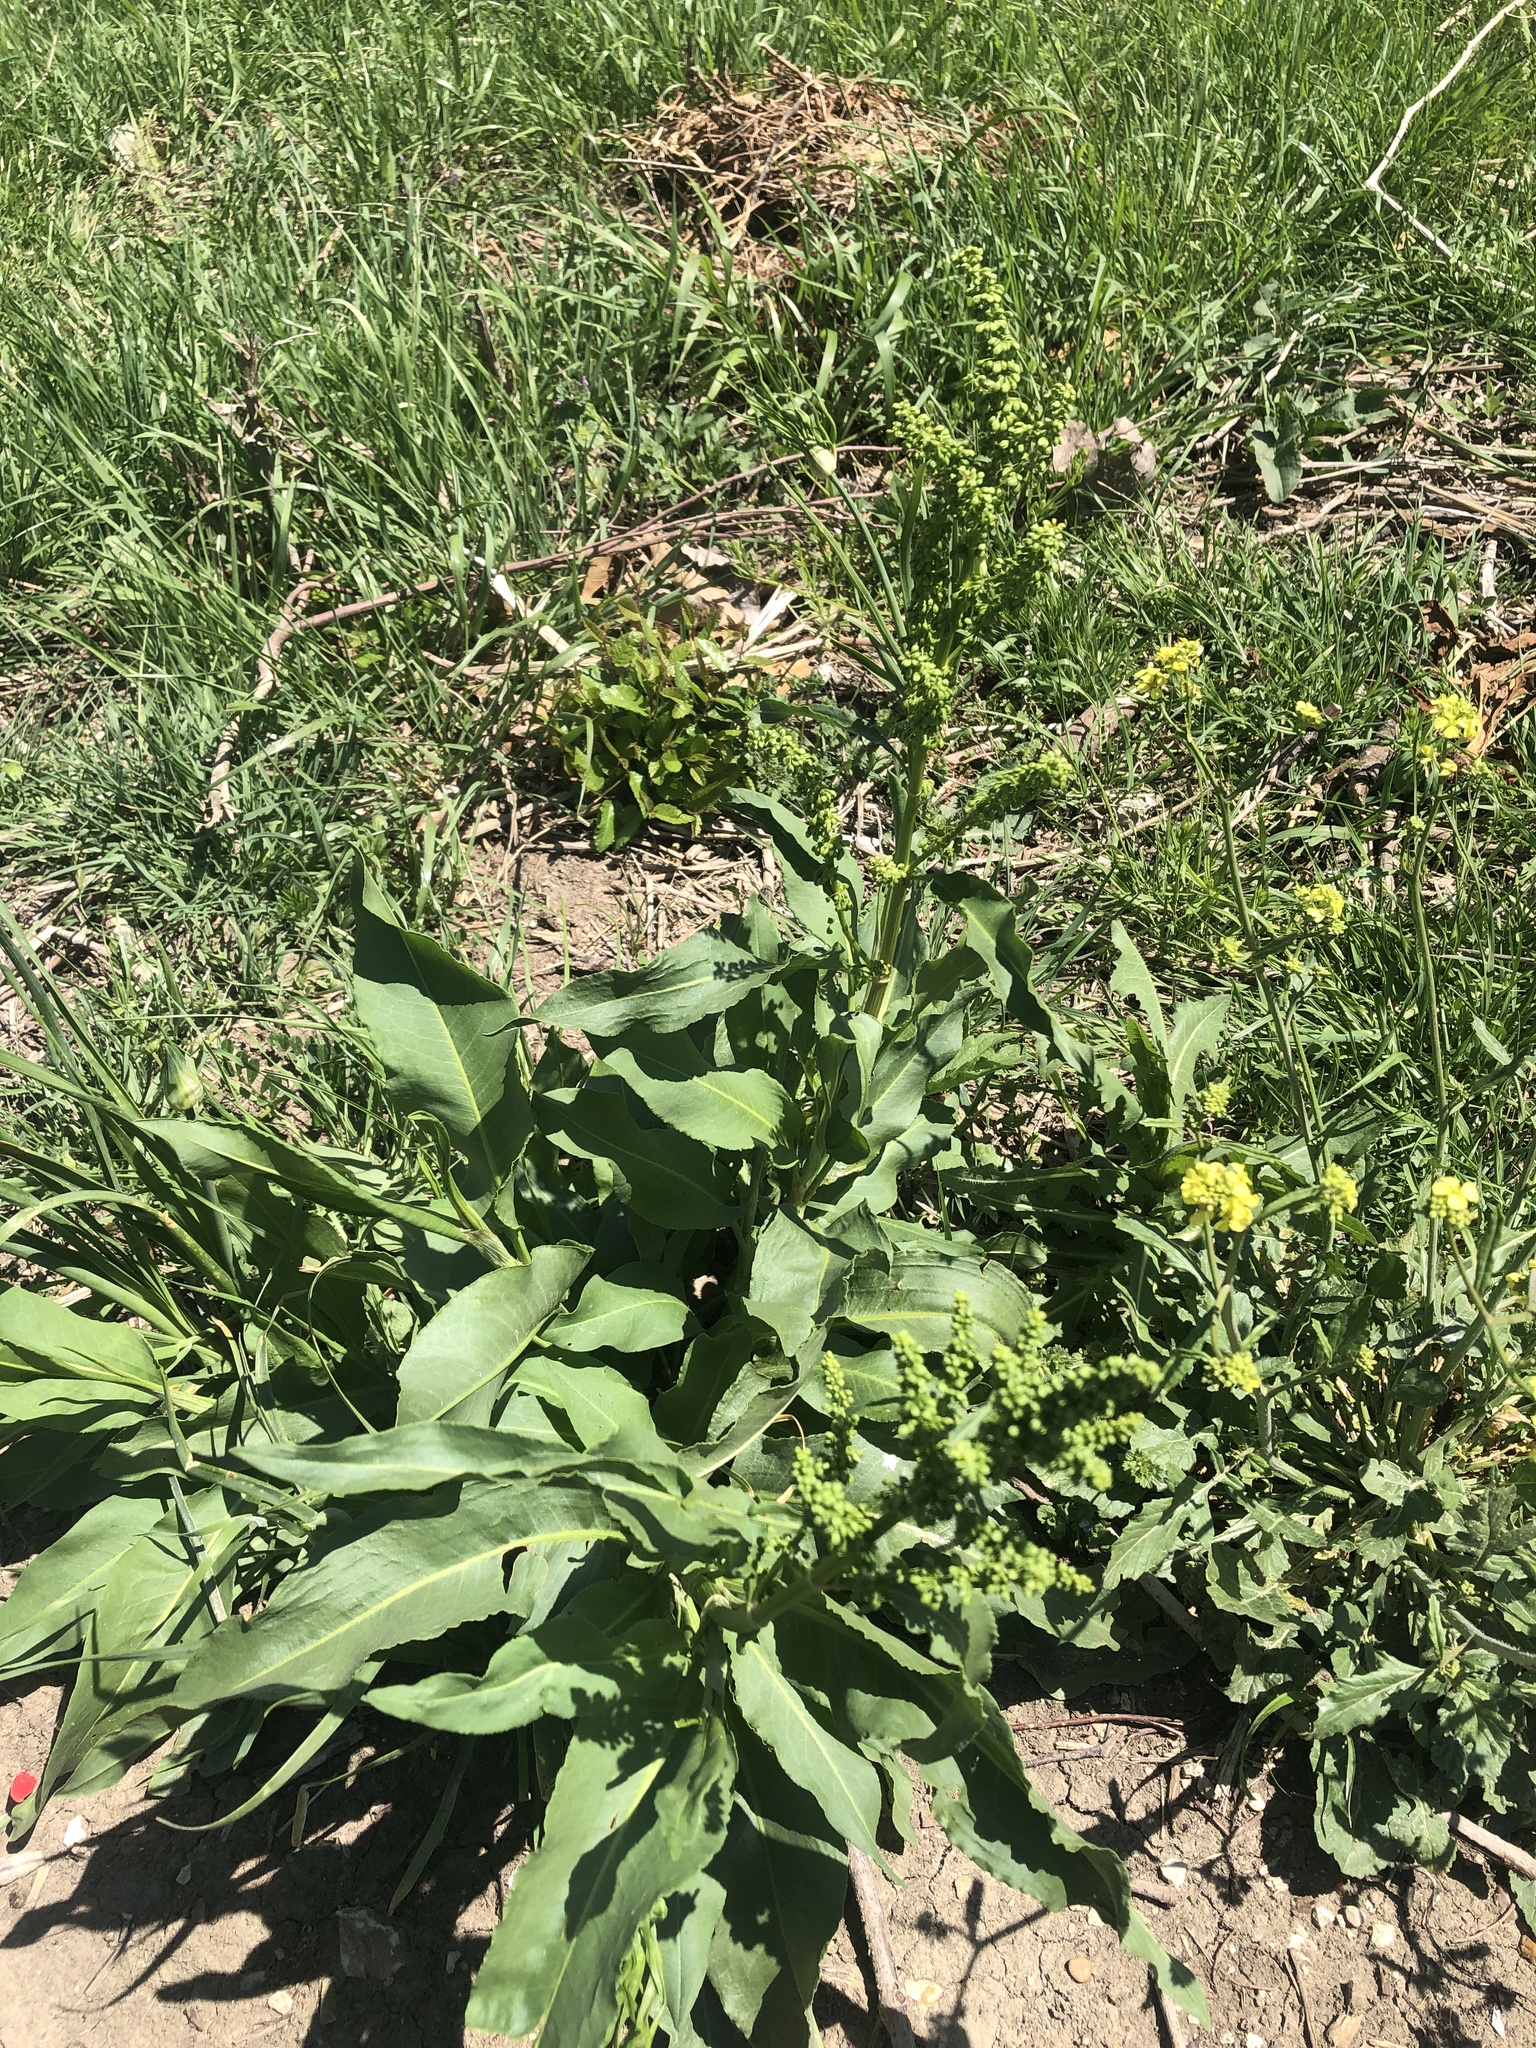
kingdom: Plantae
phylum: Tracheophyta
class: Magnoliopsida
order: Caryophyllales
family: Polygonaceae
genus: Rumex
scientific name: Rumex crispus
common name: Curled dock
